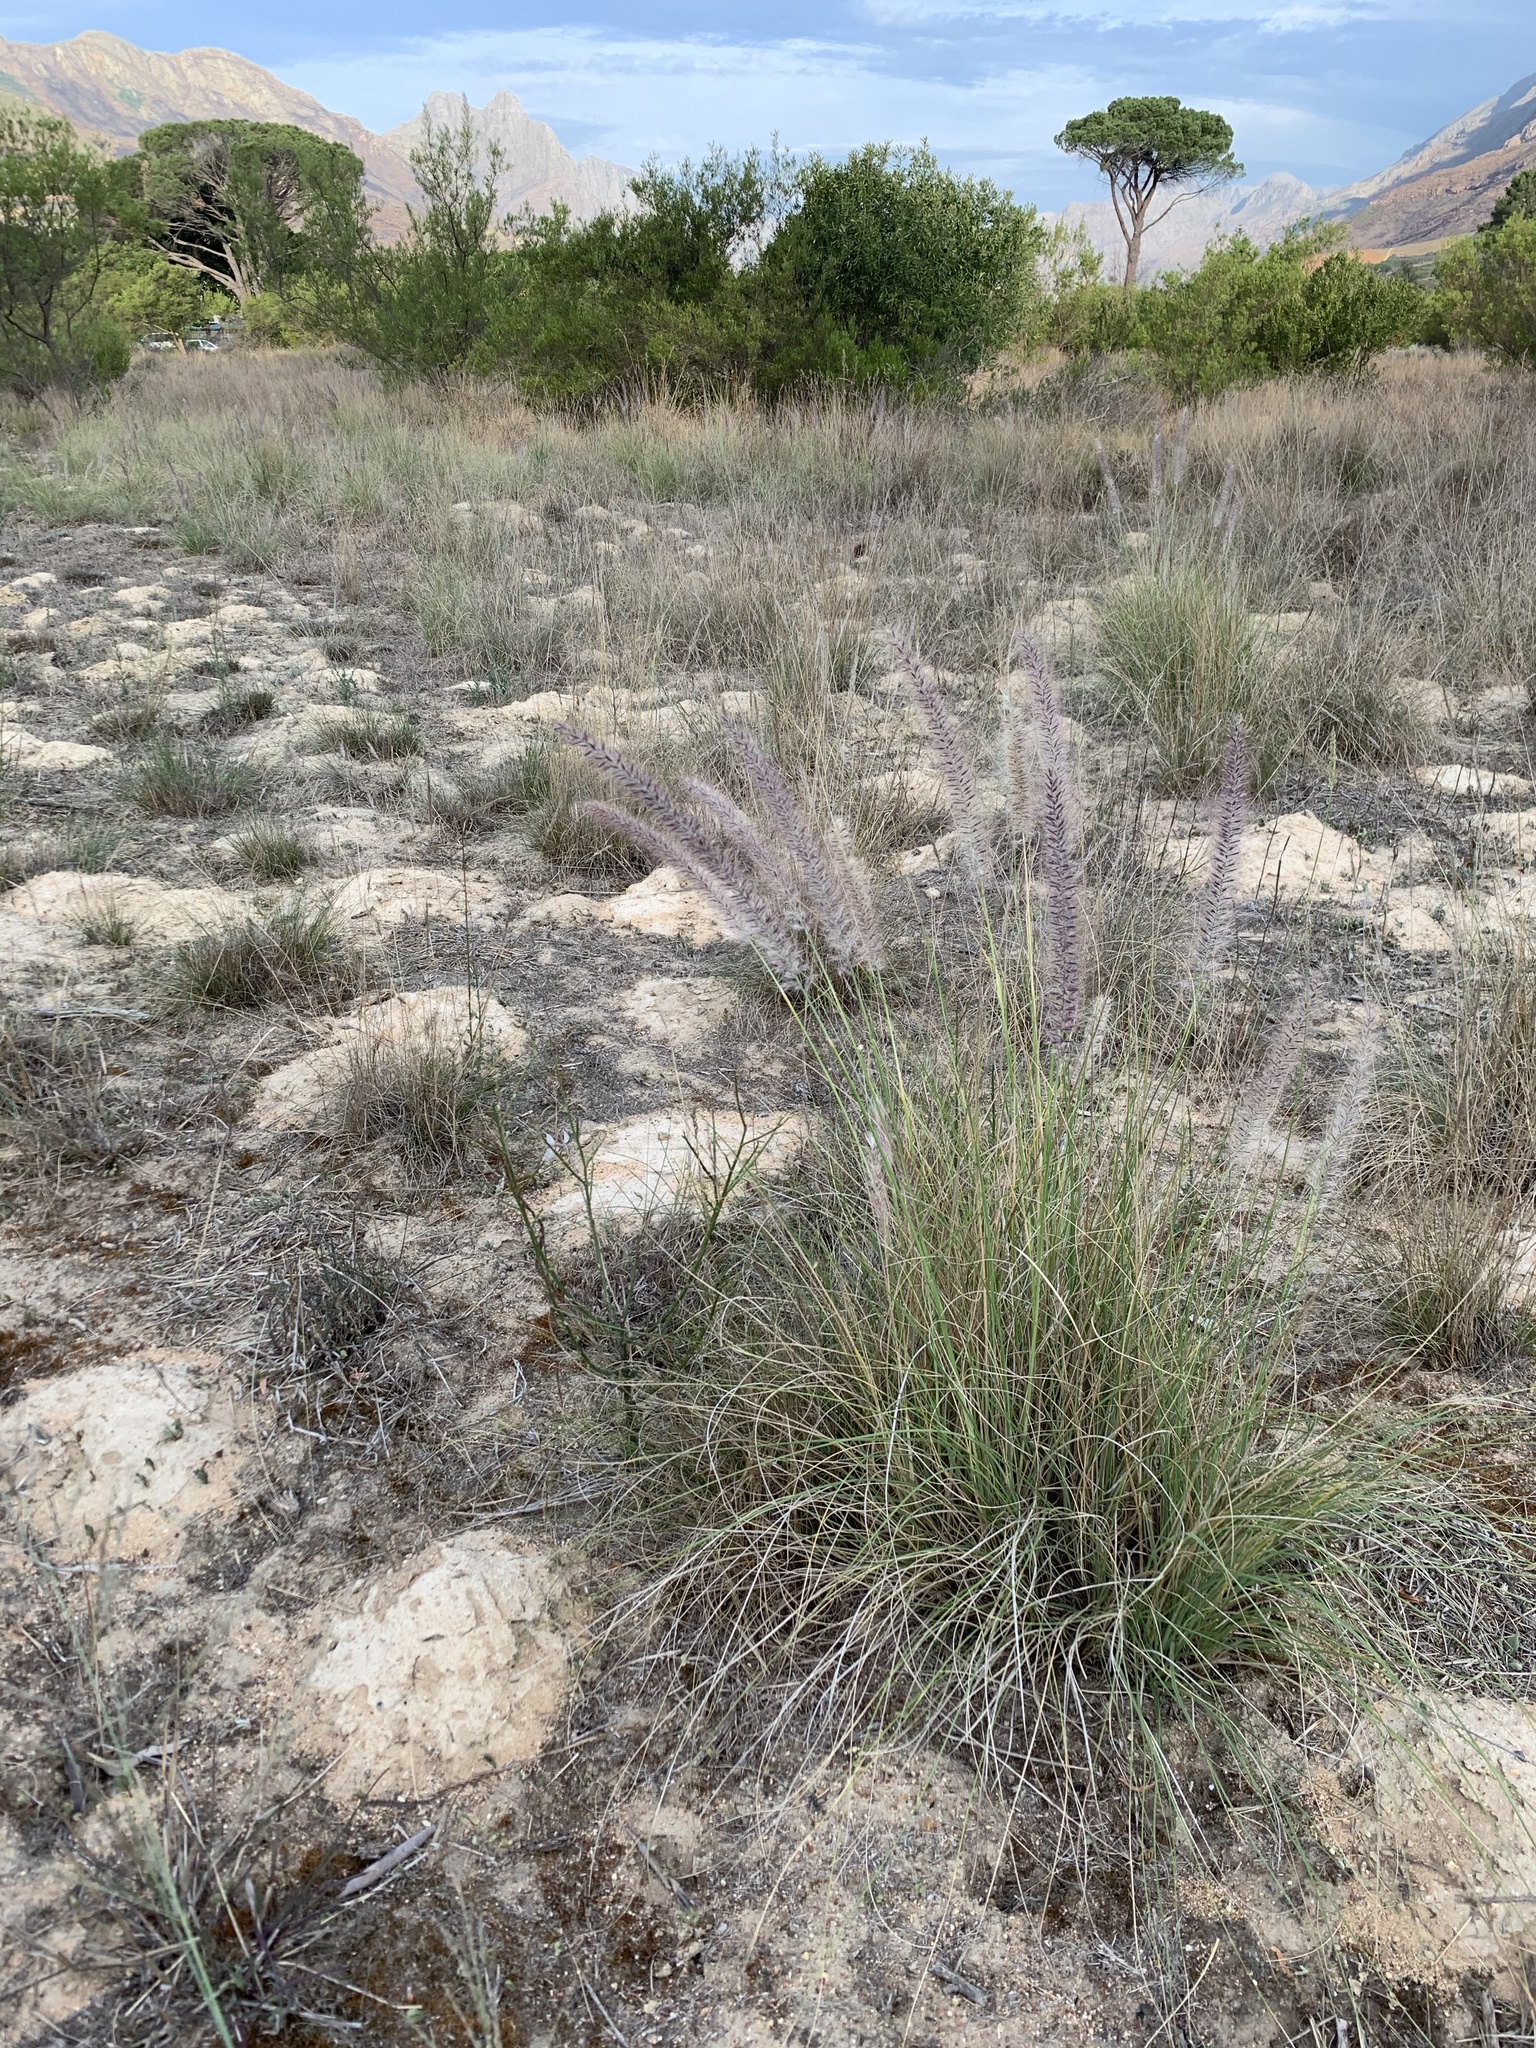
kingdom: Plantae
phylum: Tracheophyta
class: Liliopsida
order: Poales
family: Poaceae
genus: Cenchrus
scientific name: Cenchrus setaceus
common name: Crimson fountaingrass
